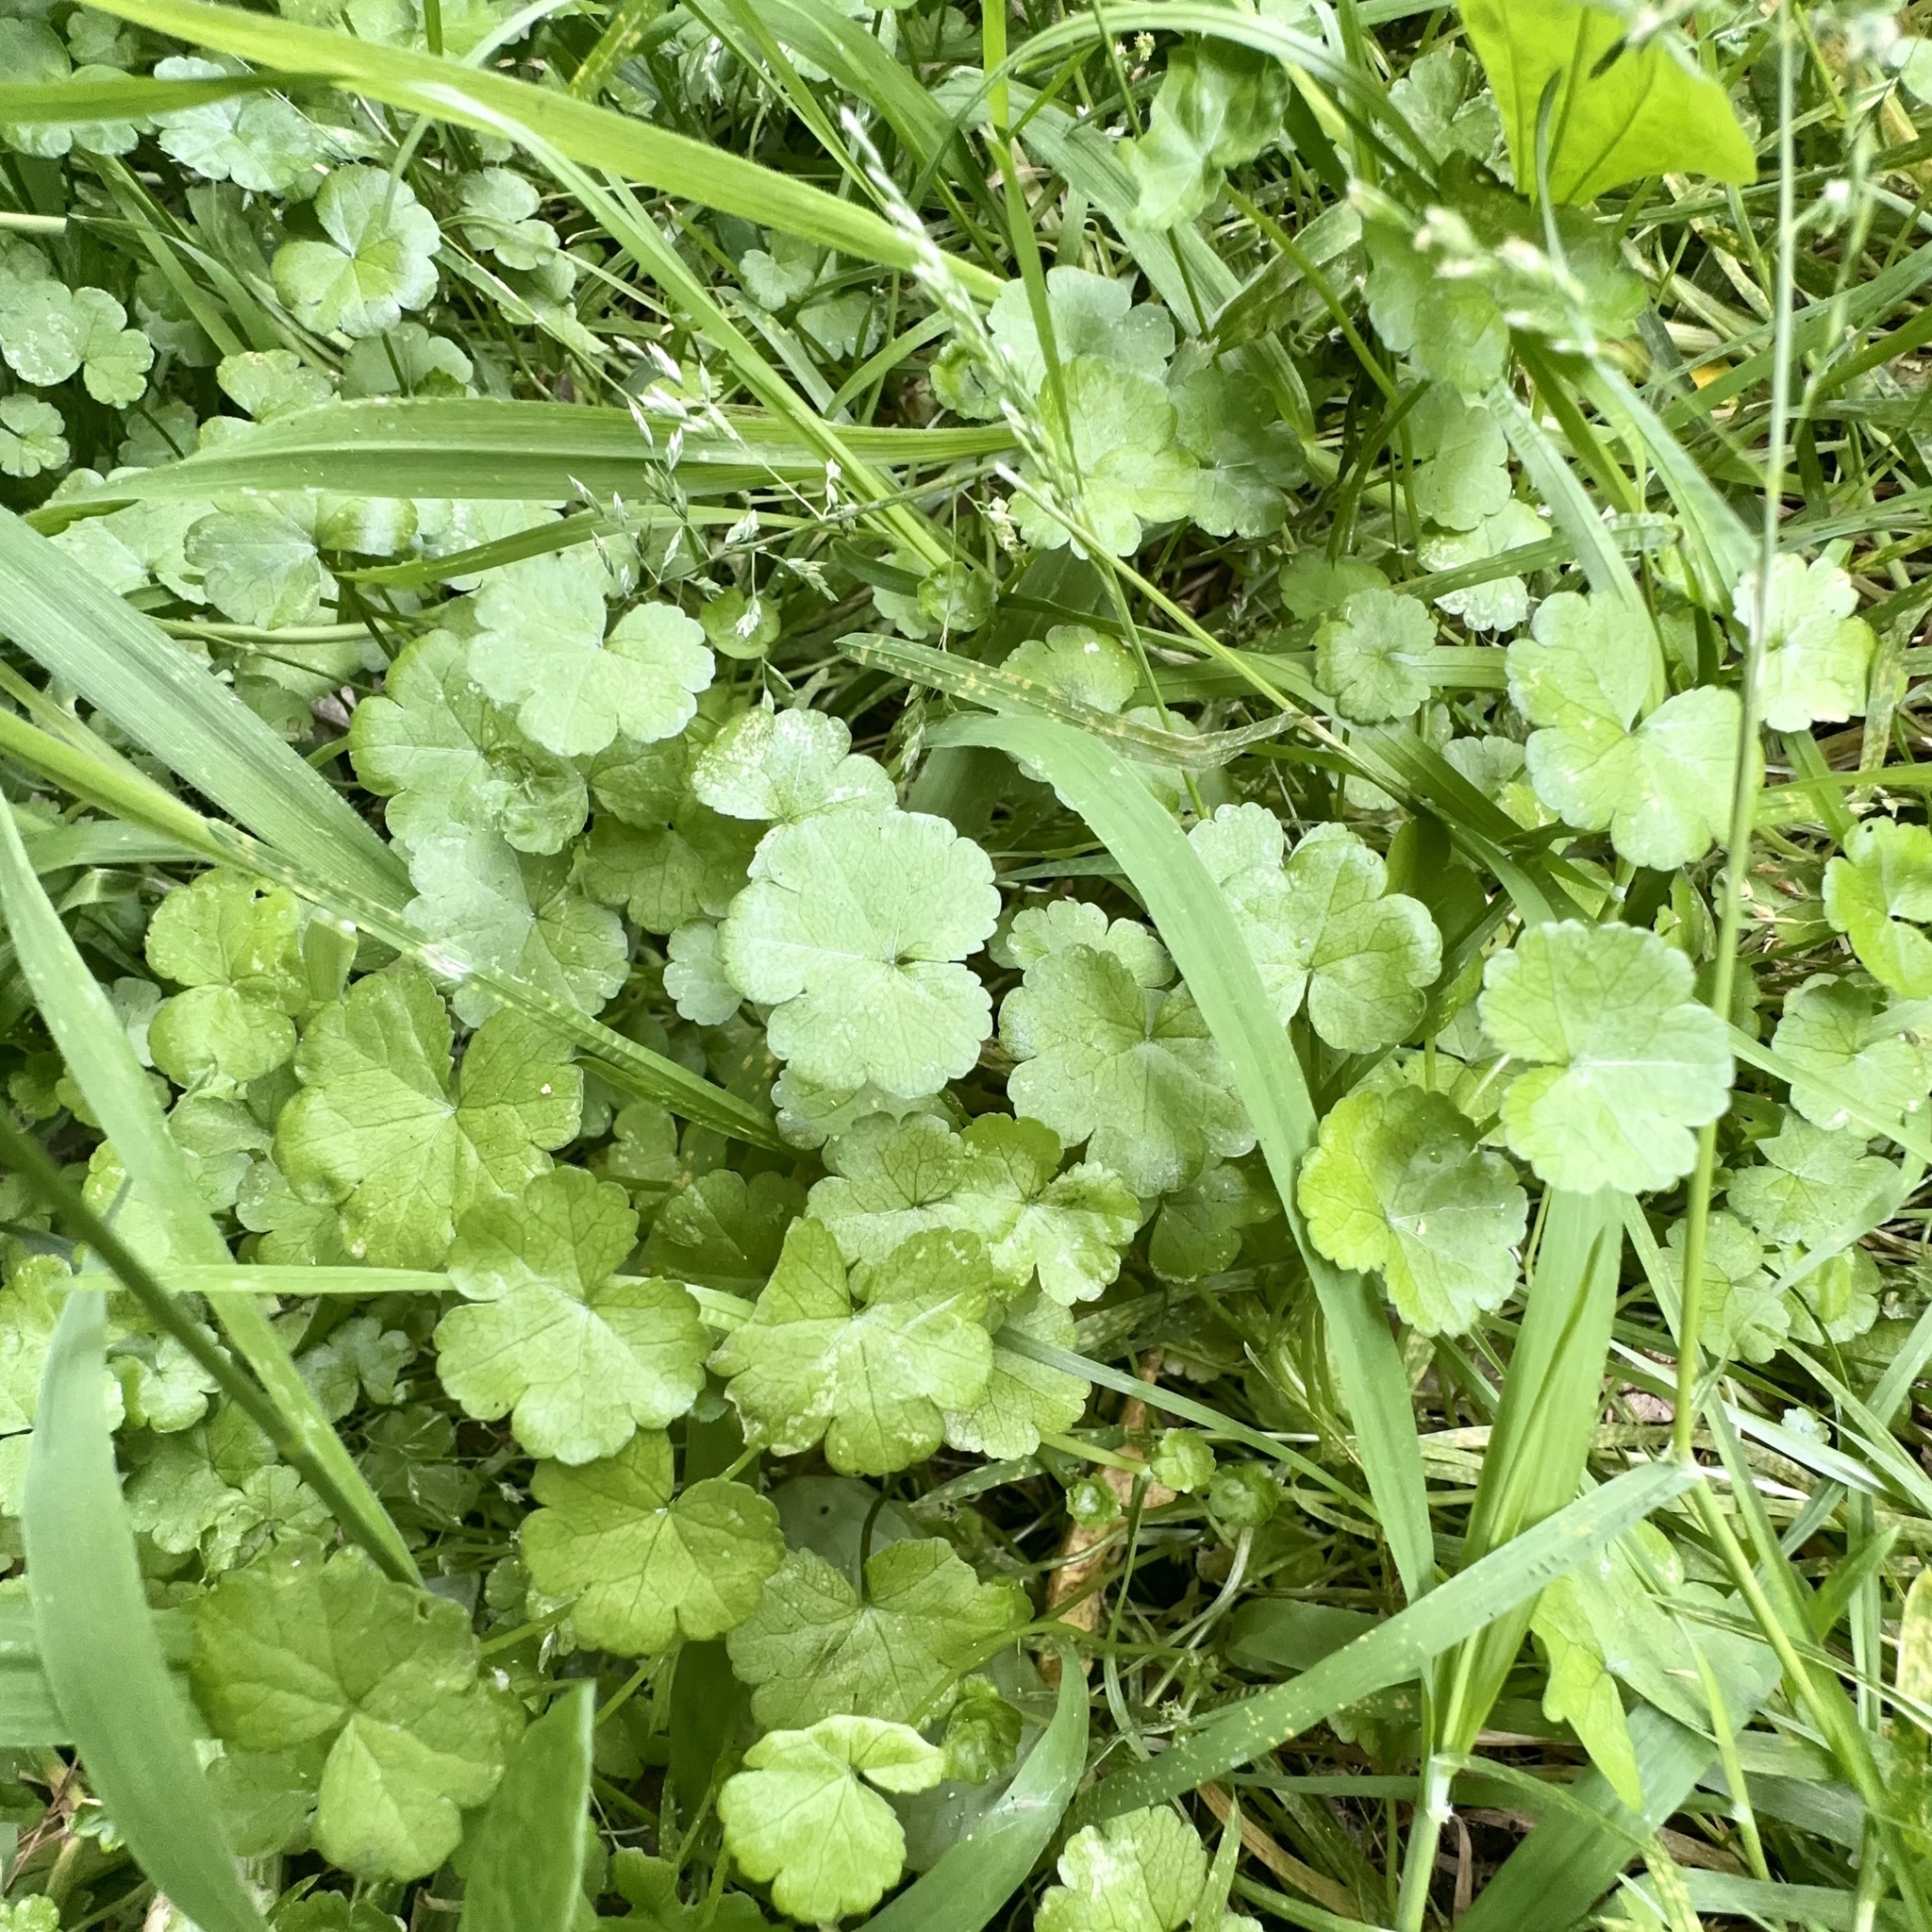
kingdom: Plantae
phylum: Tracheophyta
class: Magnoliopsida
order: Apiales
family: Araliaceae
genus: Hydrocotyle
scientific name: Hydrocotyle heteromeria
